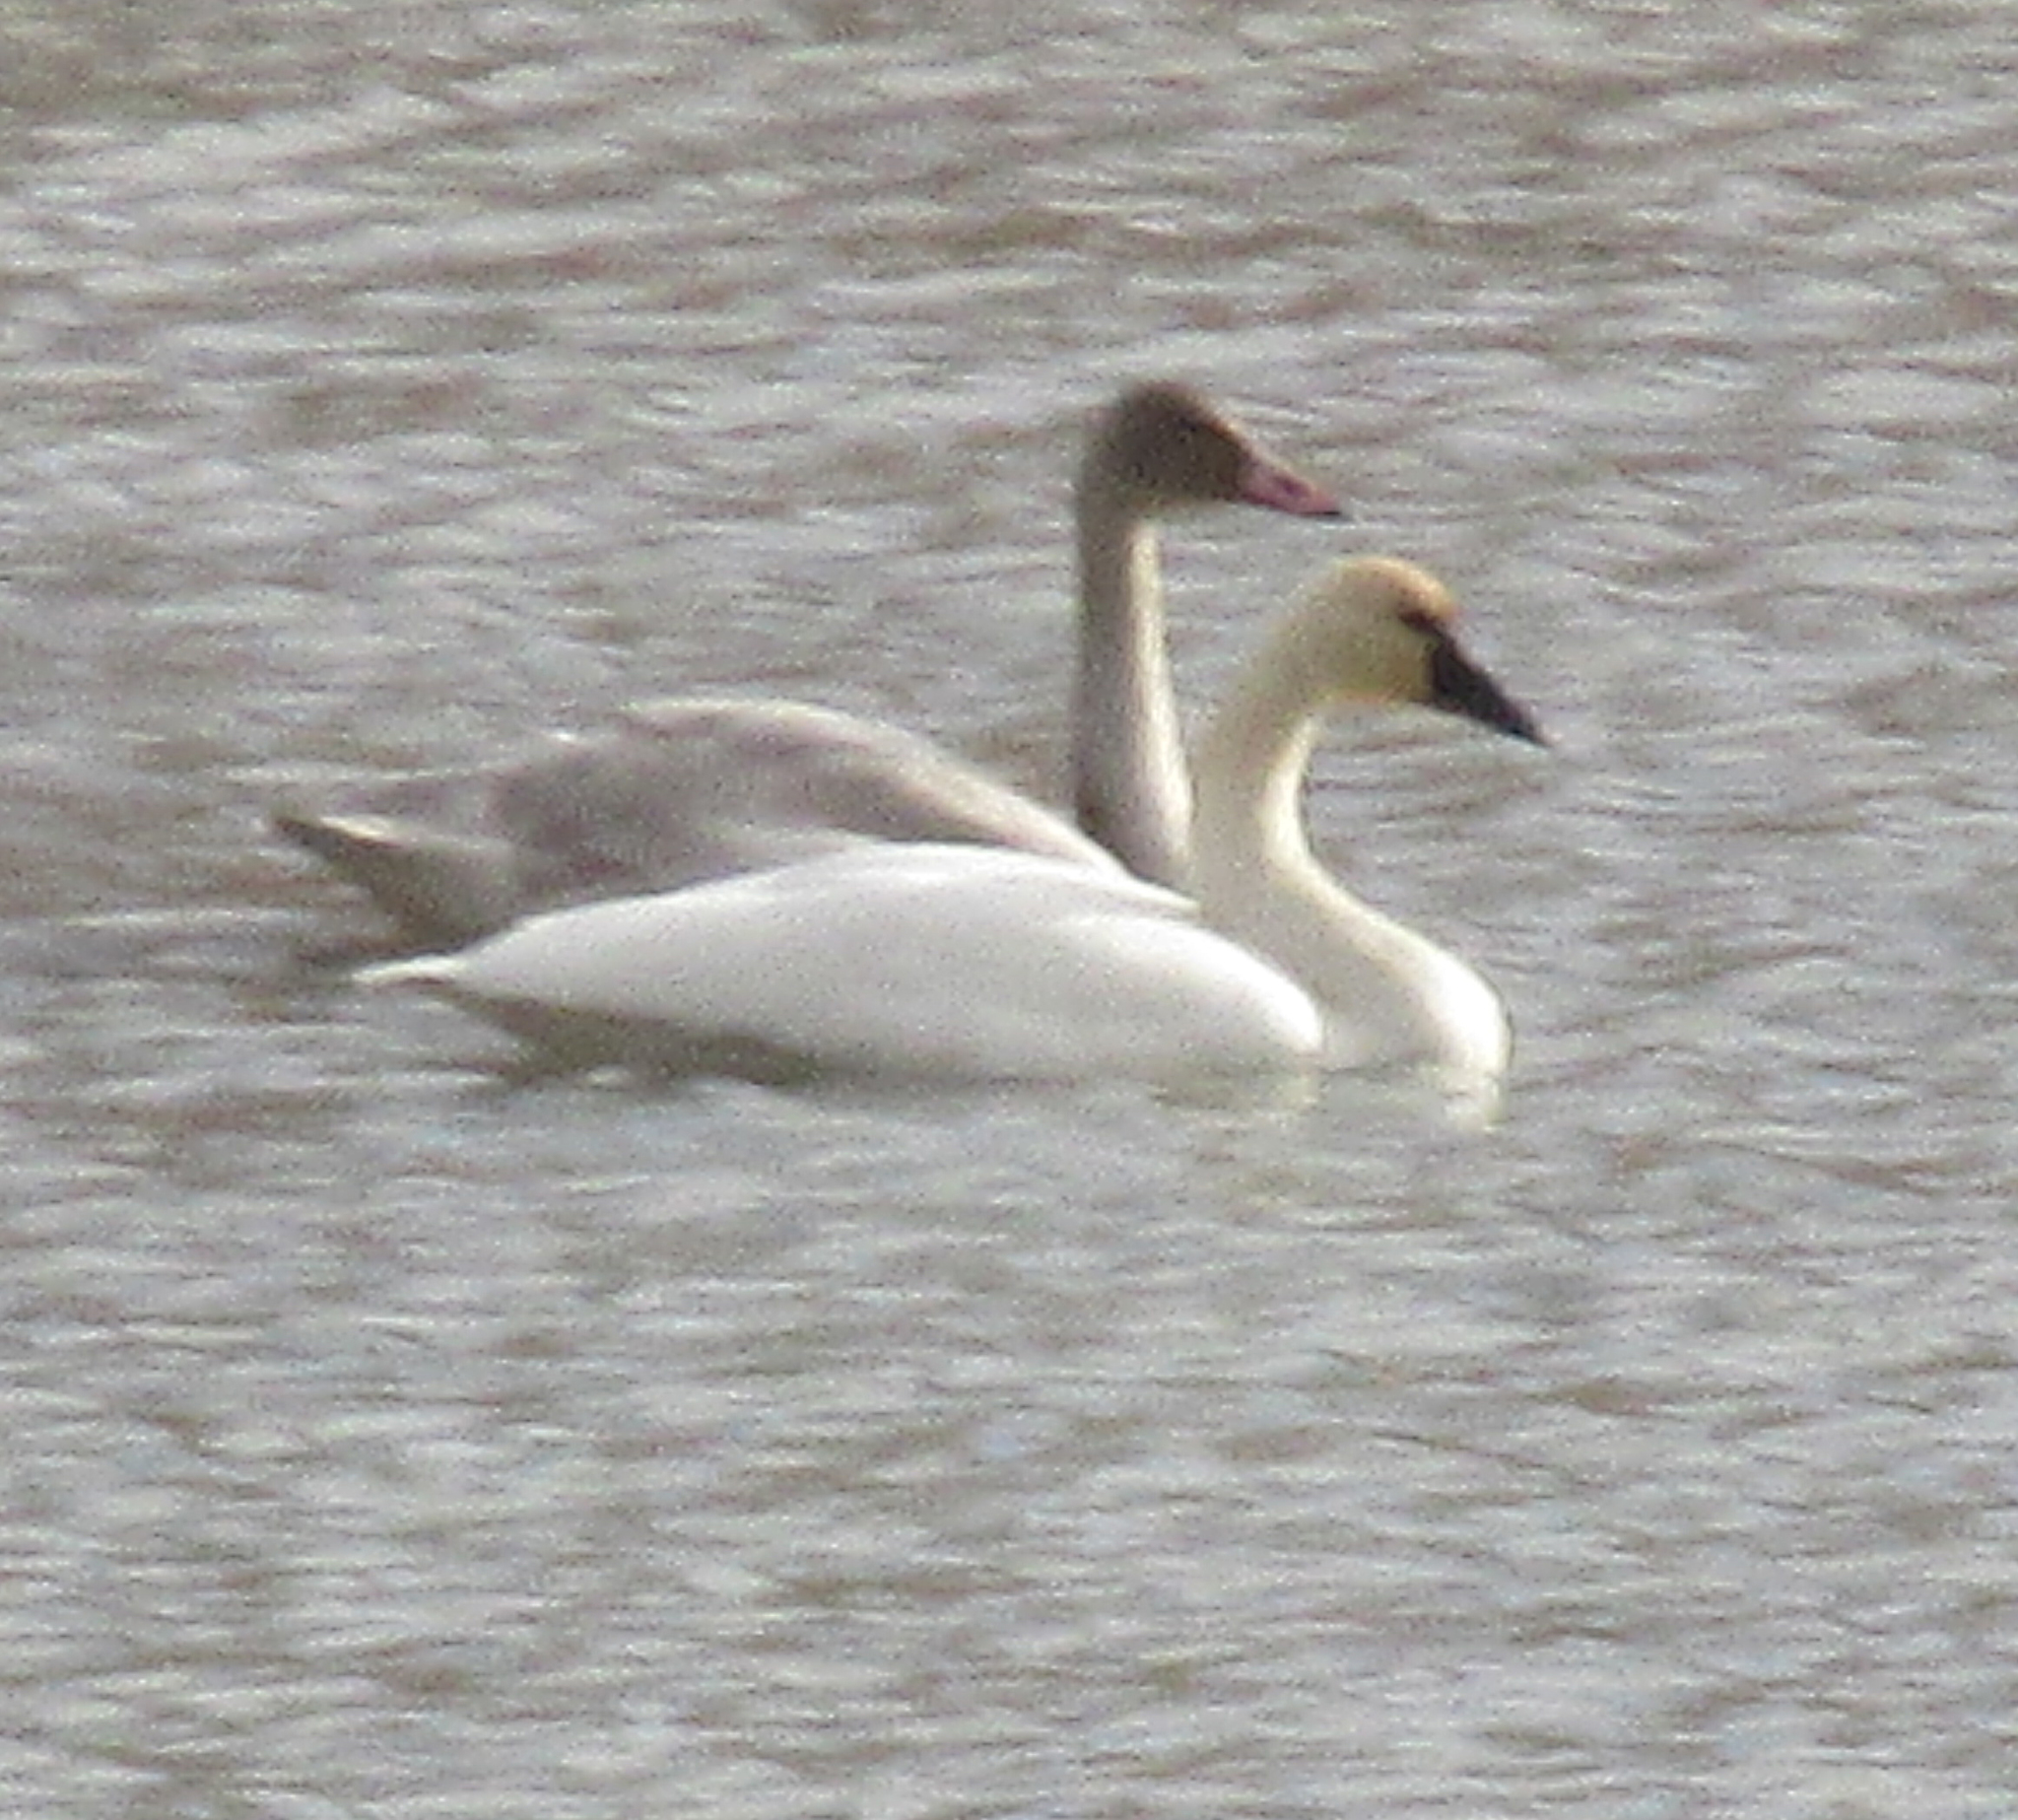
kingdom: Animalia
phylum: Chordata
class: Aves
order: Anseriformes
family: Anatidae
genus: Cygnus
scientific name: Cygnus buccinator
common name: Trumpeter swan
